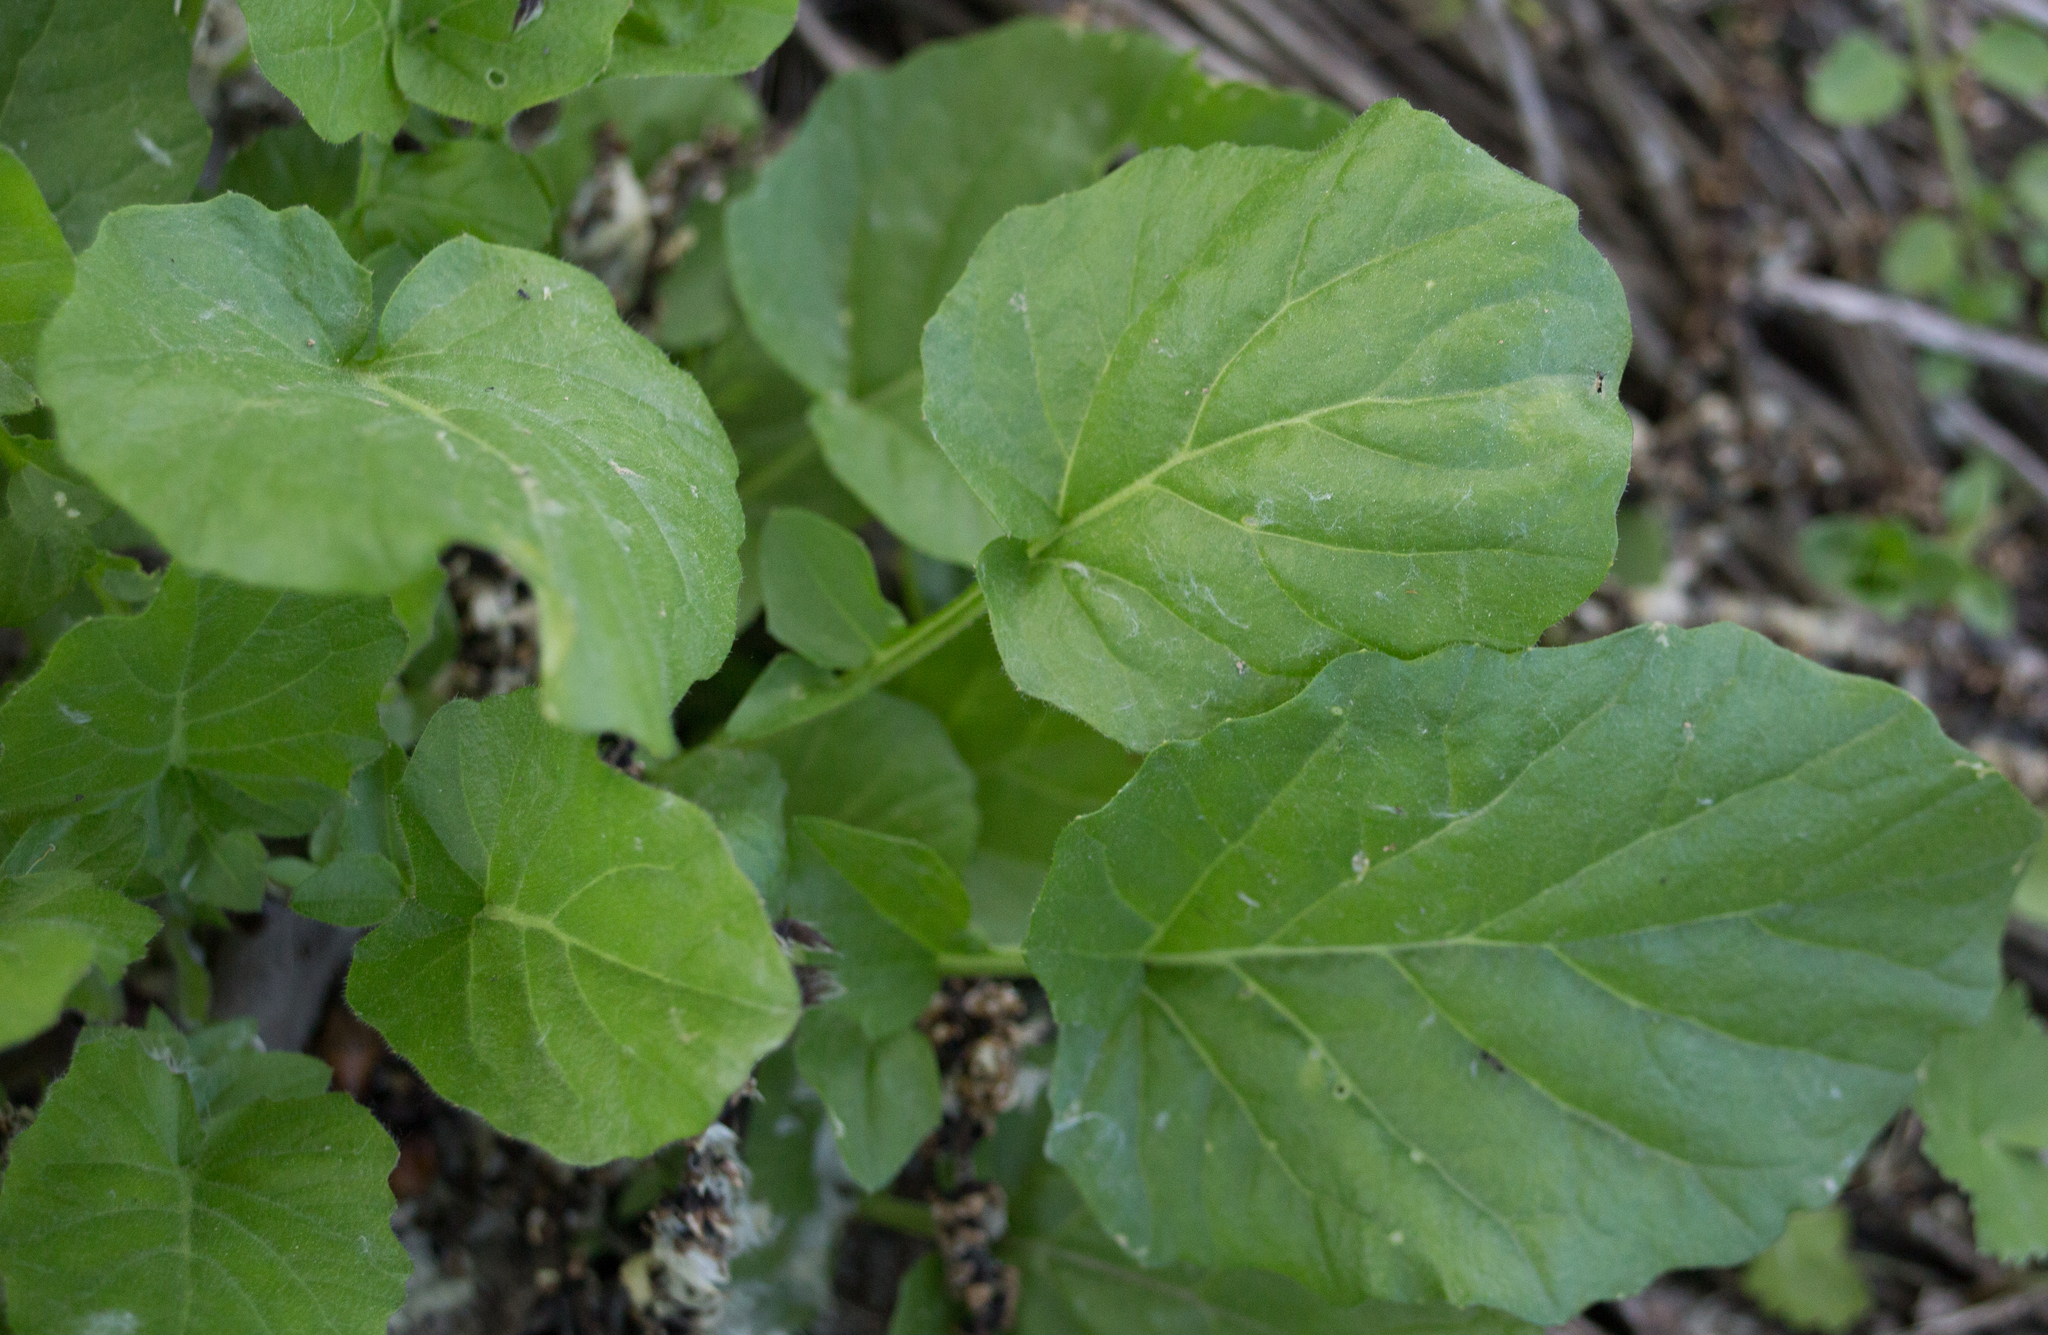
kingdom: Plantae
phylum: Tracheophyta
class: Magnoliopsida
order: Asterales
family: Asteraceae
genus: Lapsana
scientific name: Lapsana communis
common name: Nipplewort
